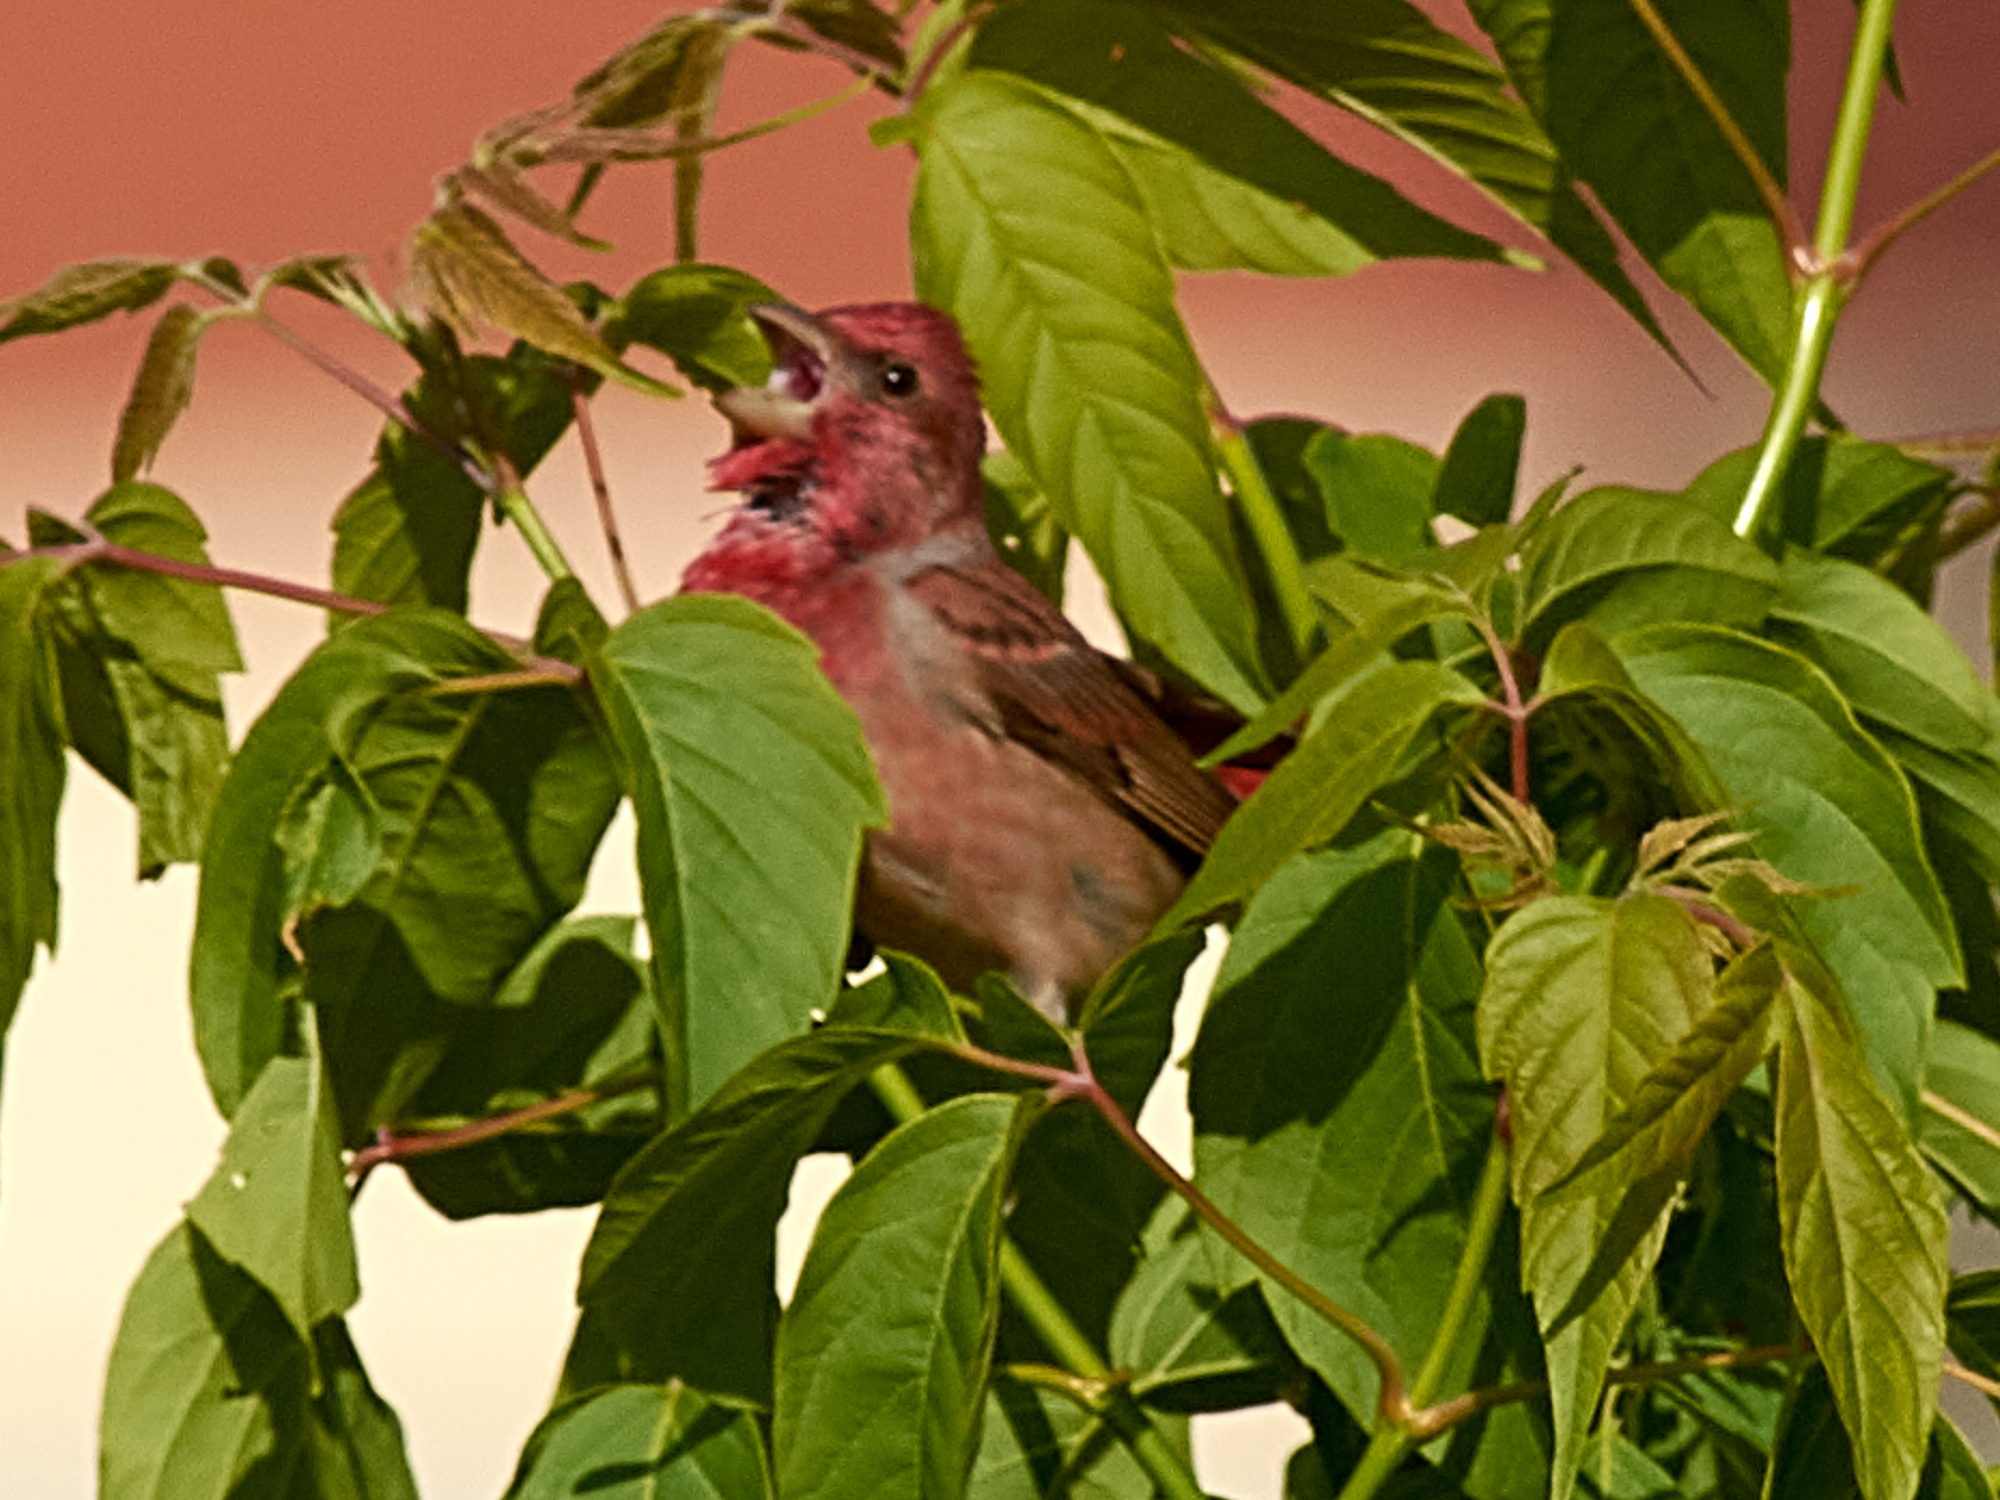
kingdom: Animalia
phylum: Chordata
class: Aves
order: Passeriformes
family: Fringillidae
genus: Carpodacus
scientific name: Carpodacus erythrinus
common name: Common rosefinch
